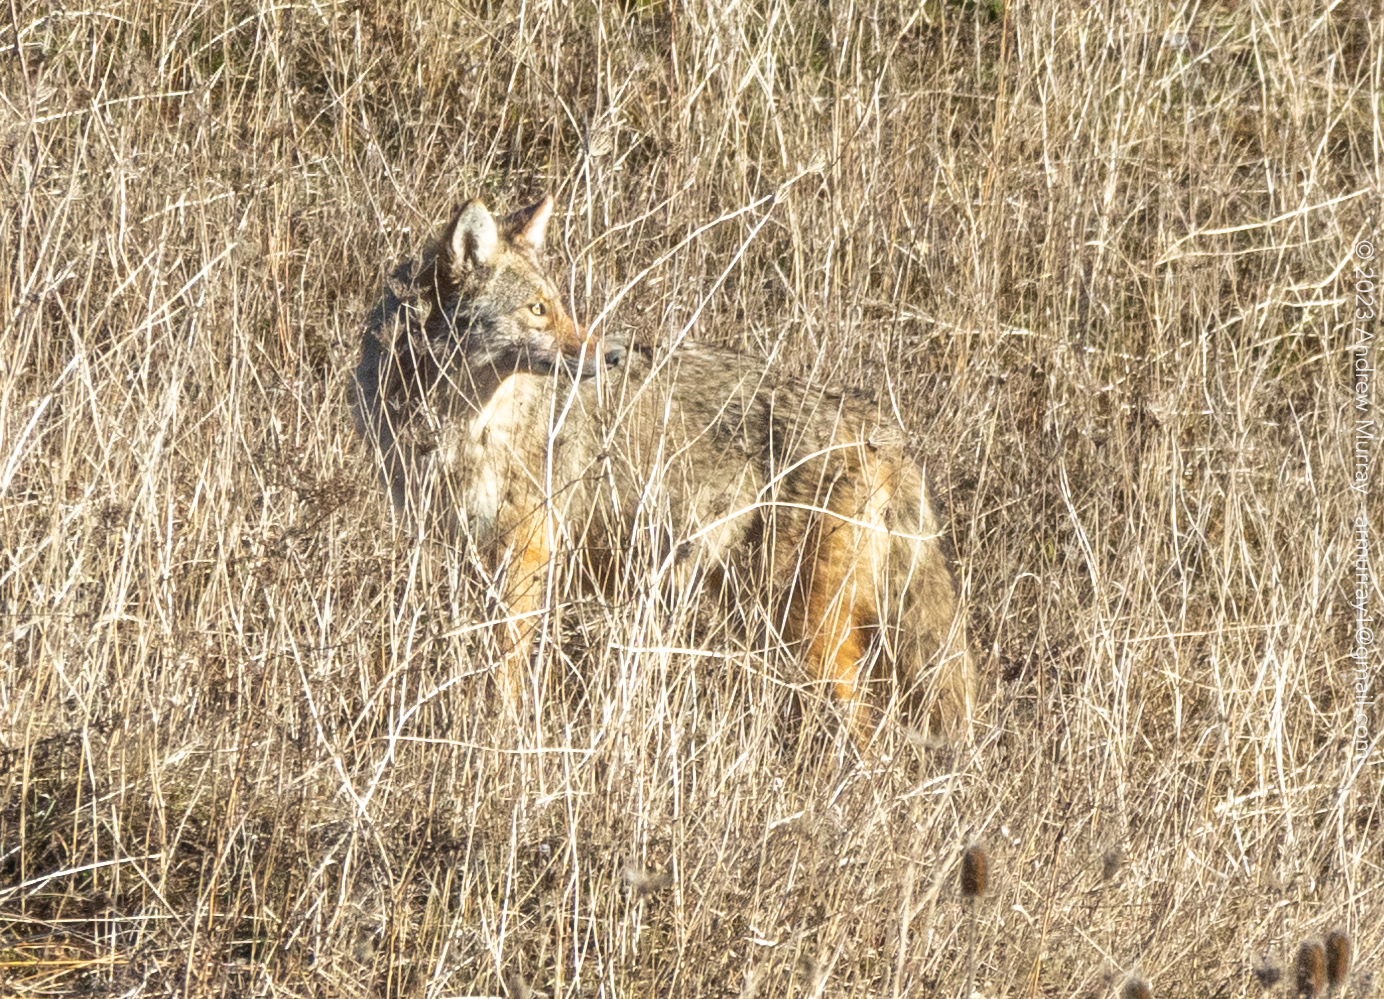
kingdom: Animalia
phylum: Chordata
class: Mammalia
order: Carnivora
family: Canidae
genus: Canis
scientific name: Canis latrans
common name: Coyote
